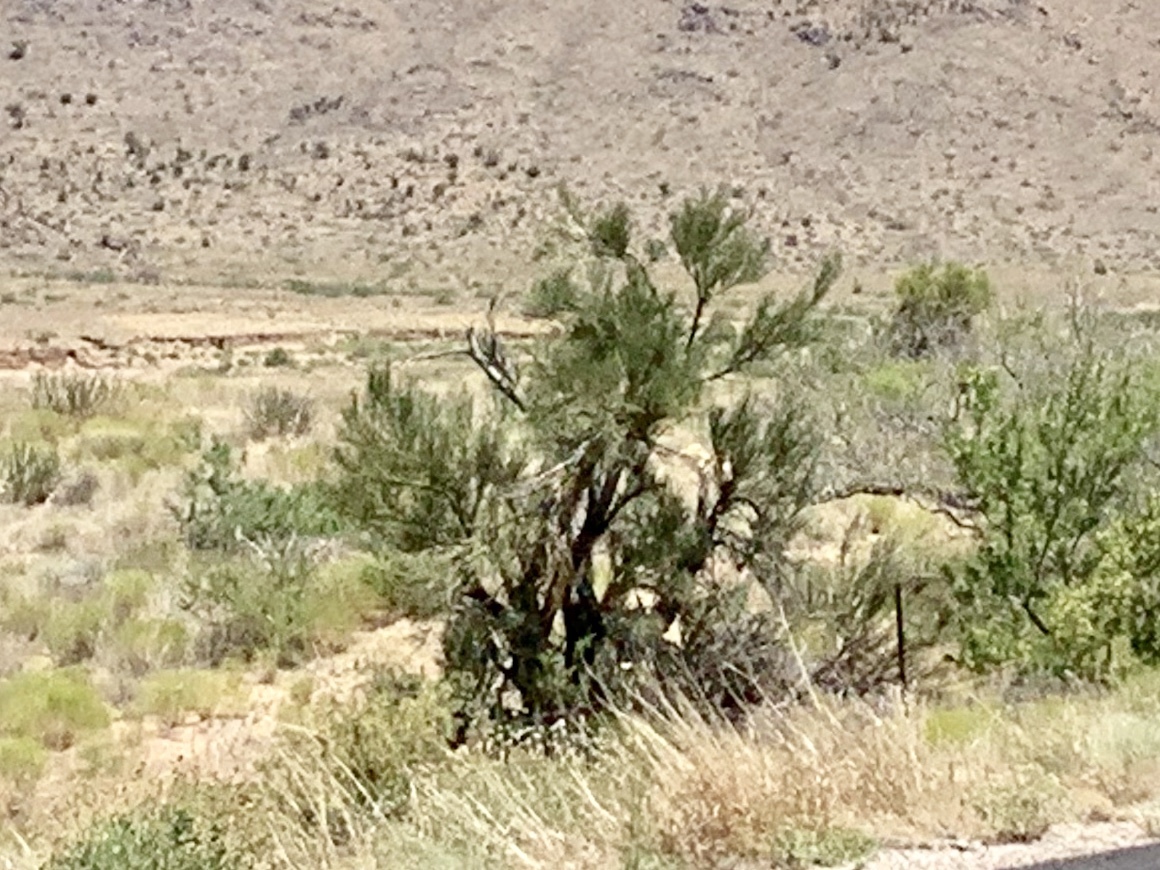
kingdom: Plantae
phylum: Tracheophyta
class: Magnoliopsida
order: Celastrales
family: Celastraceae
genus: Canotia
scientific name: Canotia holacantha
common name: Crucifixion thorns
